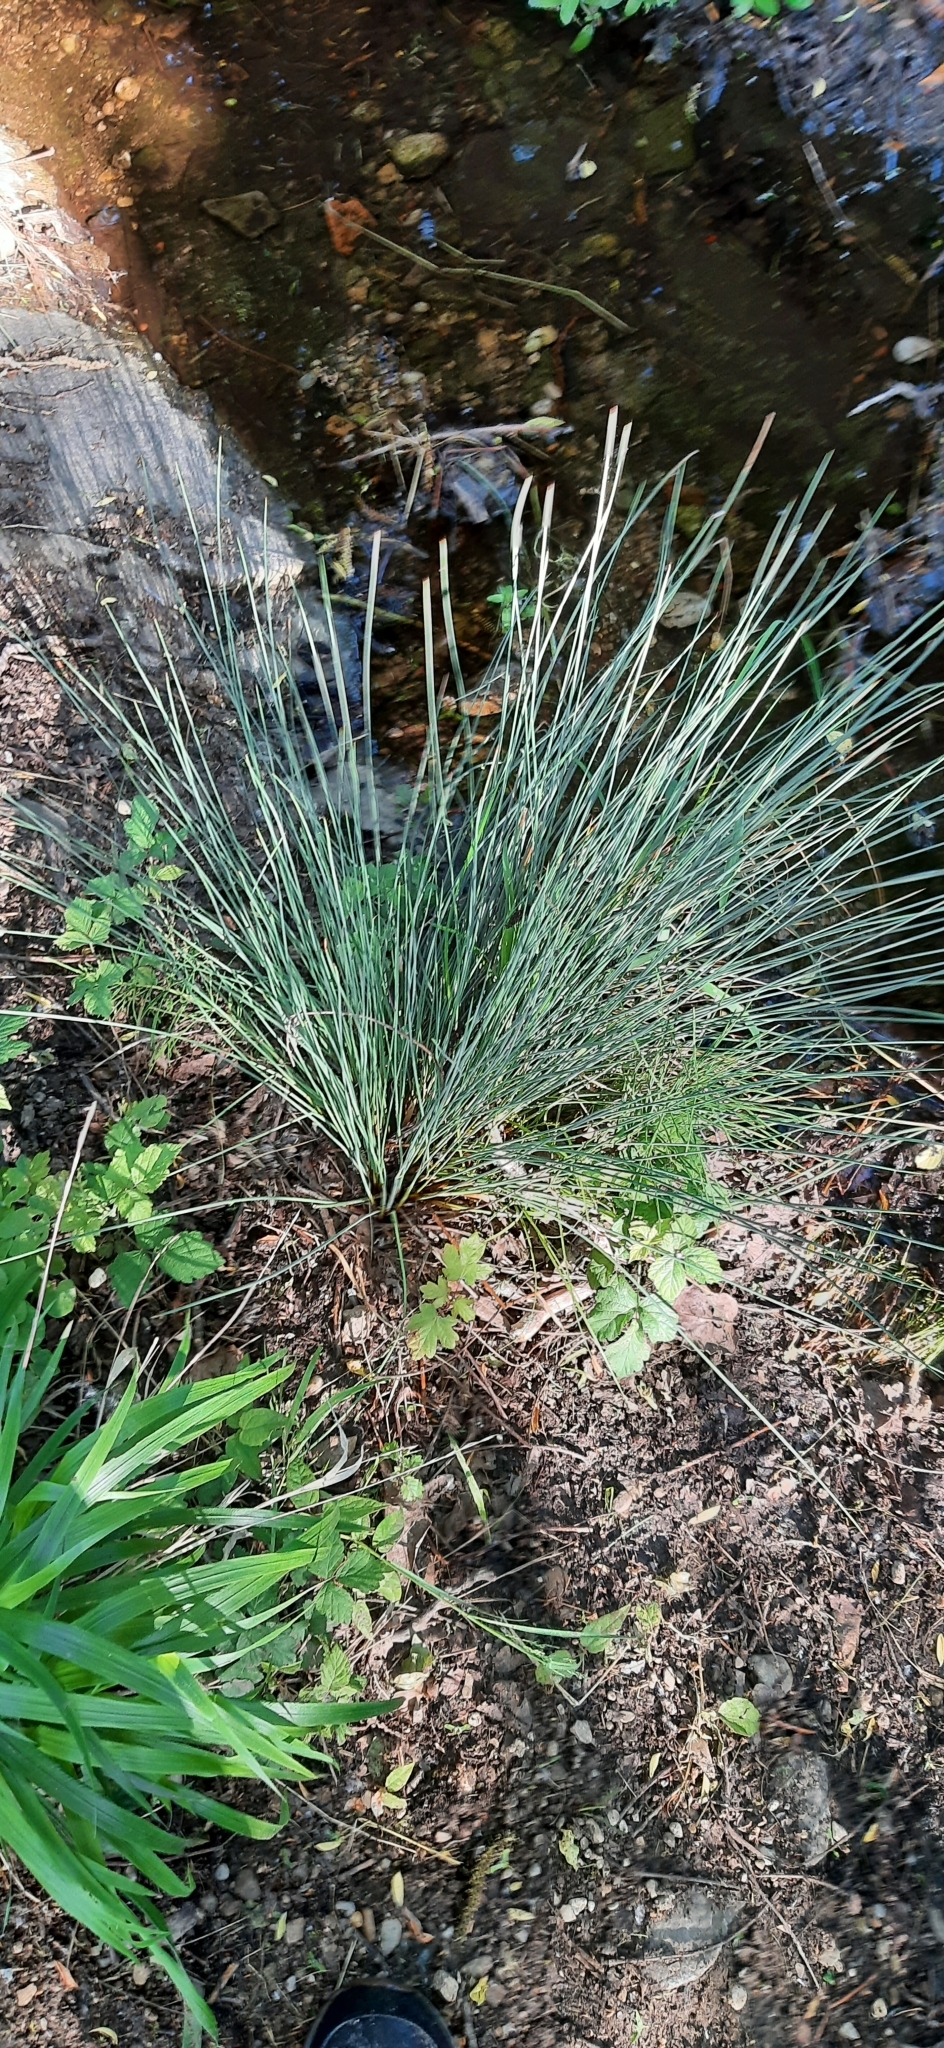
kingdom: Plantae
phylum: Tracheophyta
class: Liliopsida
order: Poales
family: Juncaceae
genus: Juncus
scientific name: Juncus inflexus
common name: Hard rush
